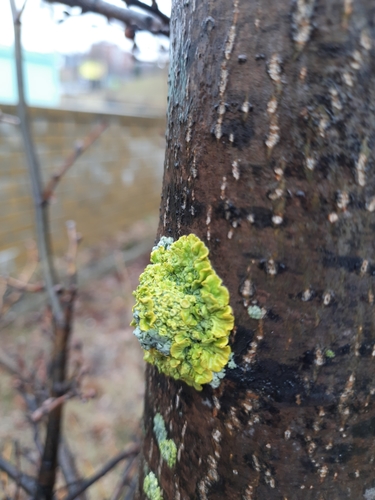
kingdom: Fungi
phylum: Ascomycota
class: Lecanoromycetes
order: Teloschistales
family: Teloschistaceae
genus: Xanthoria
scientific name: Xanthoria
